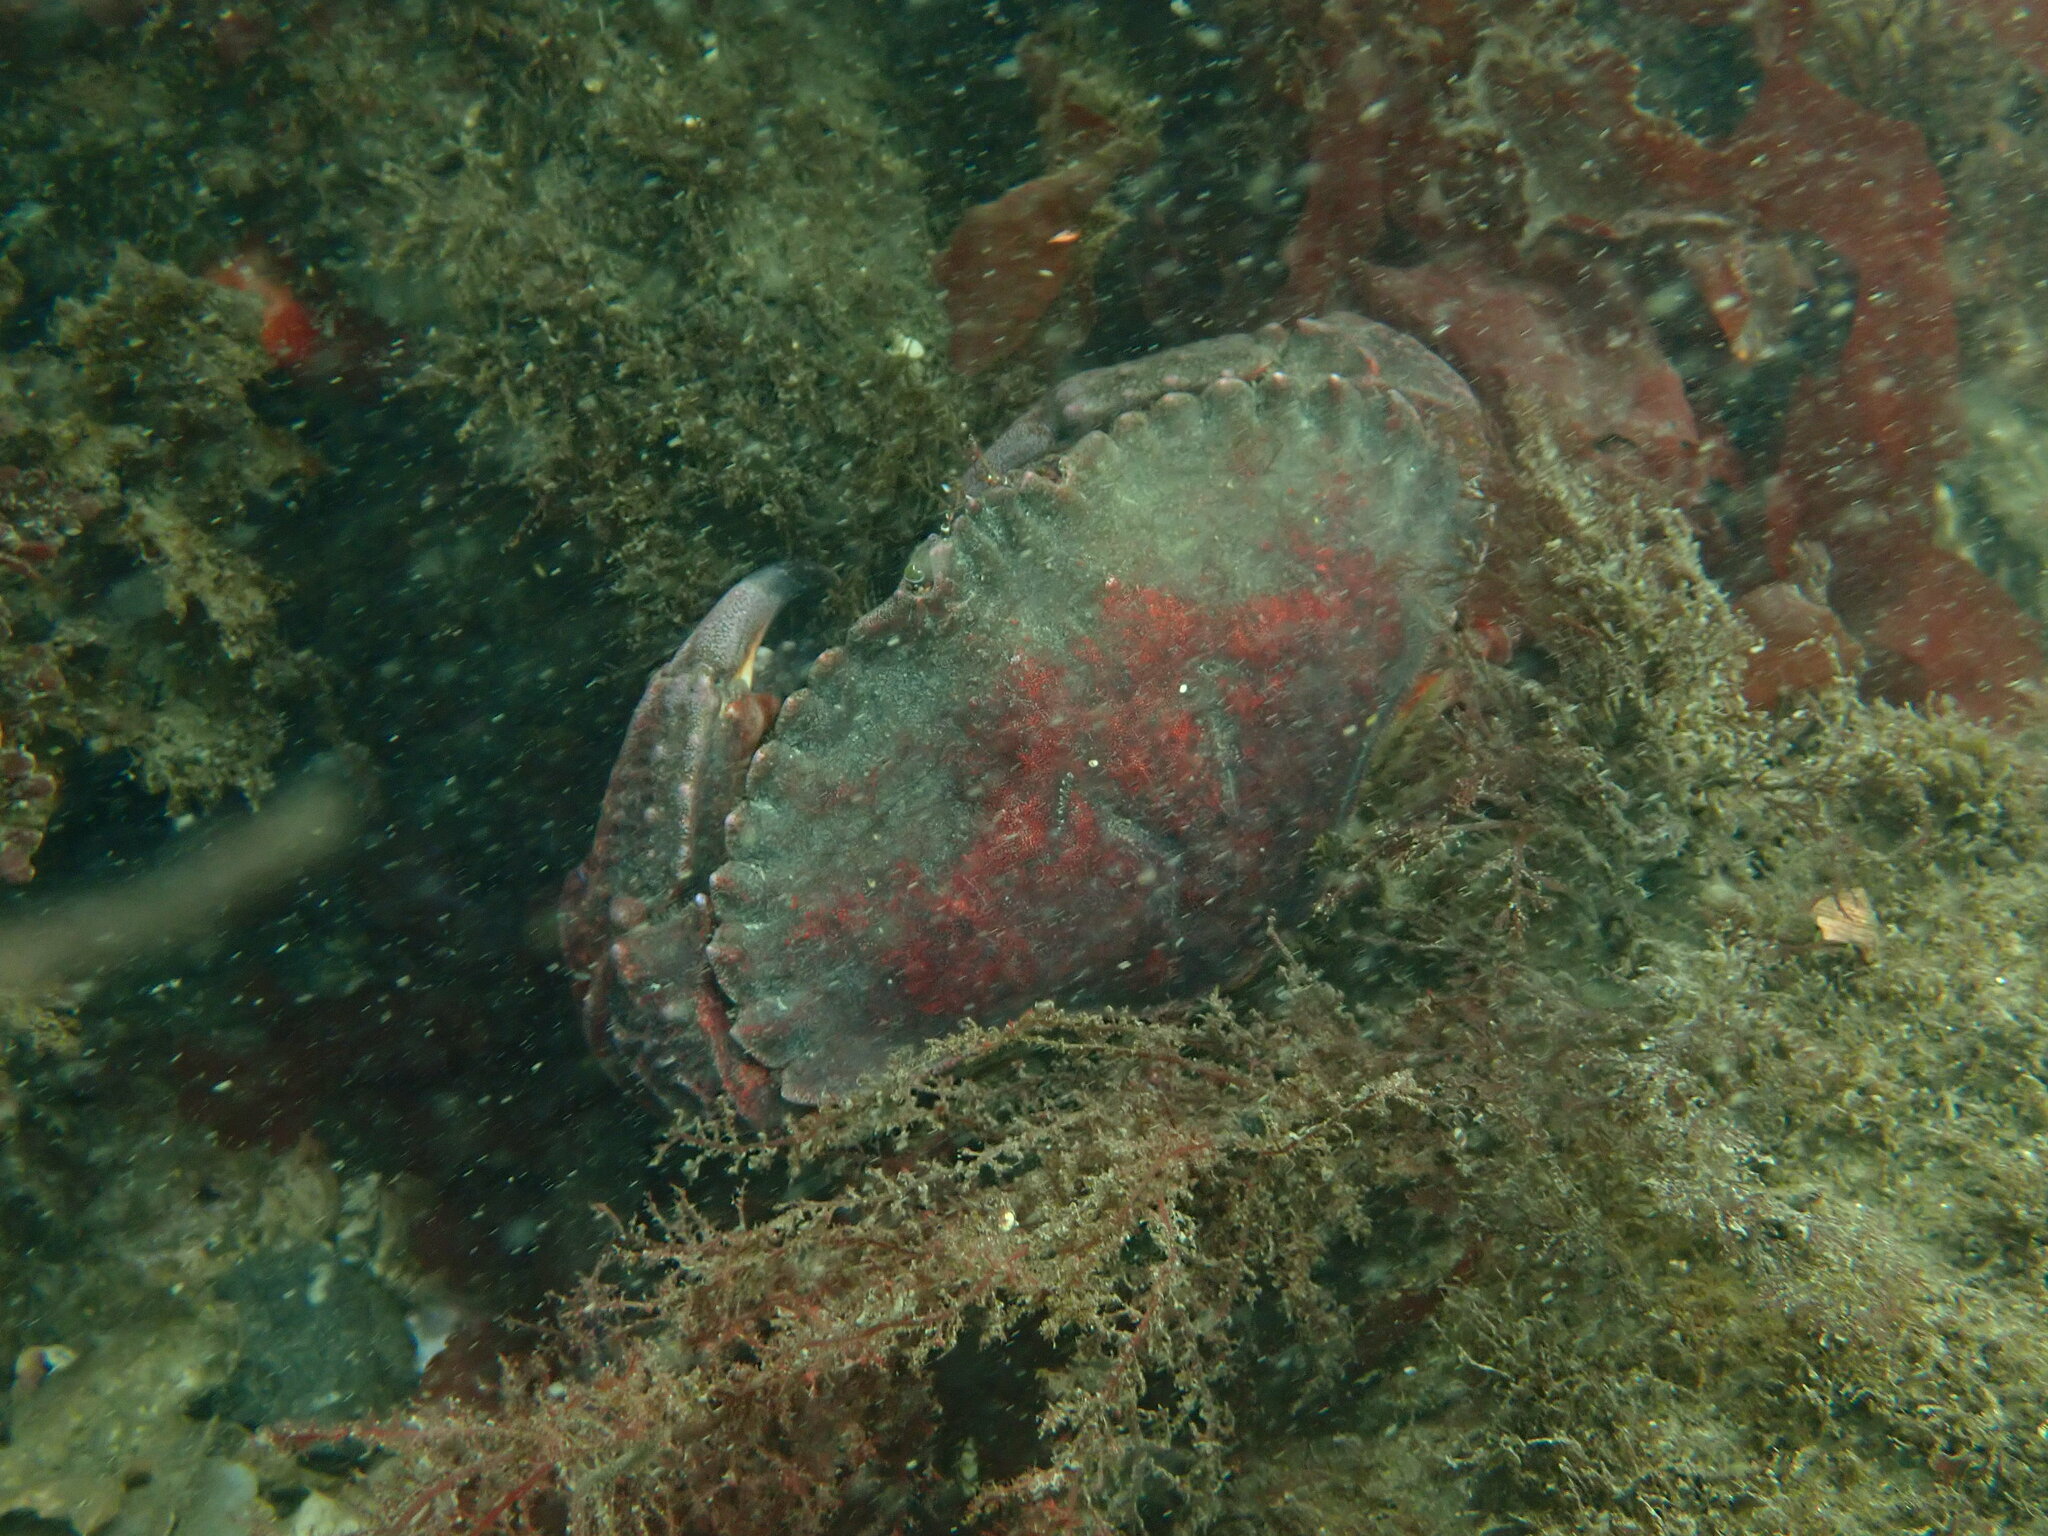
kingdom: Animalia
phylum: Arthropoda
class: Malacostraca
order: Decapoda
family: Cancridae
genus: Cancer
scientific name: Cancer productus
